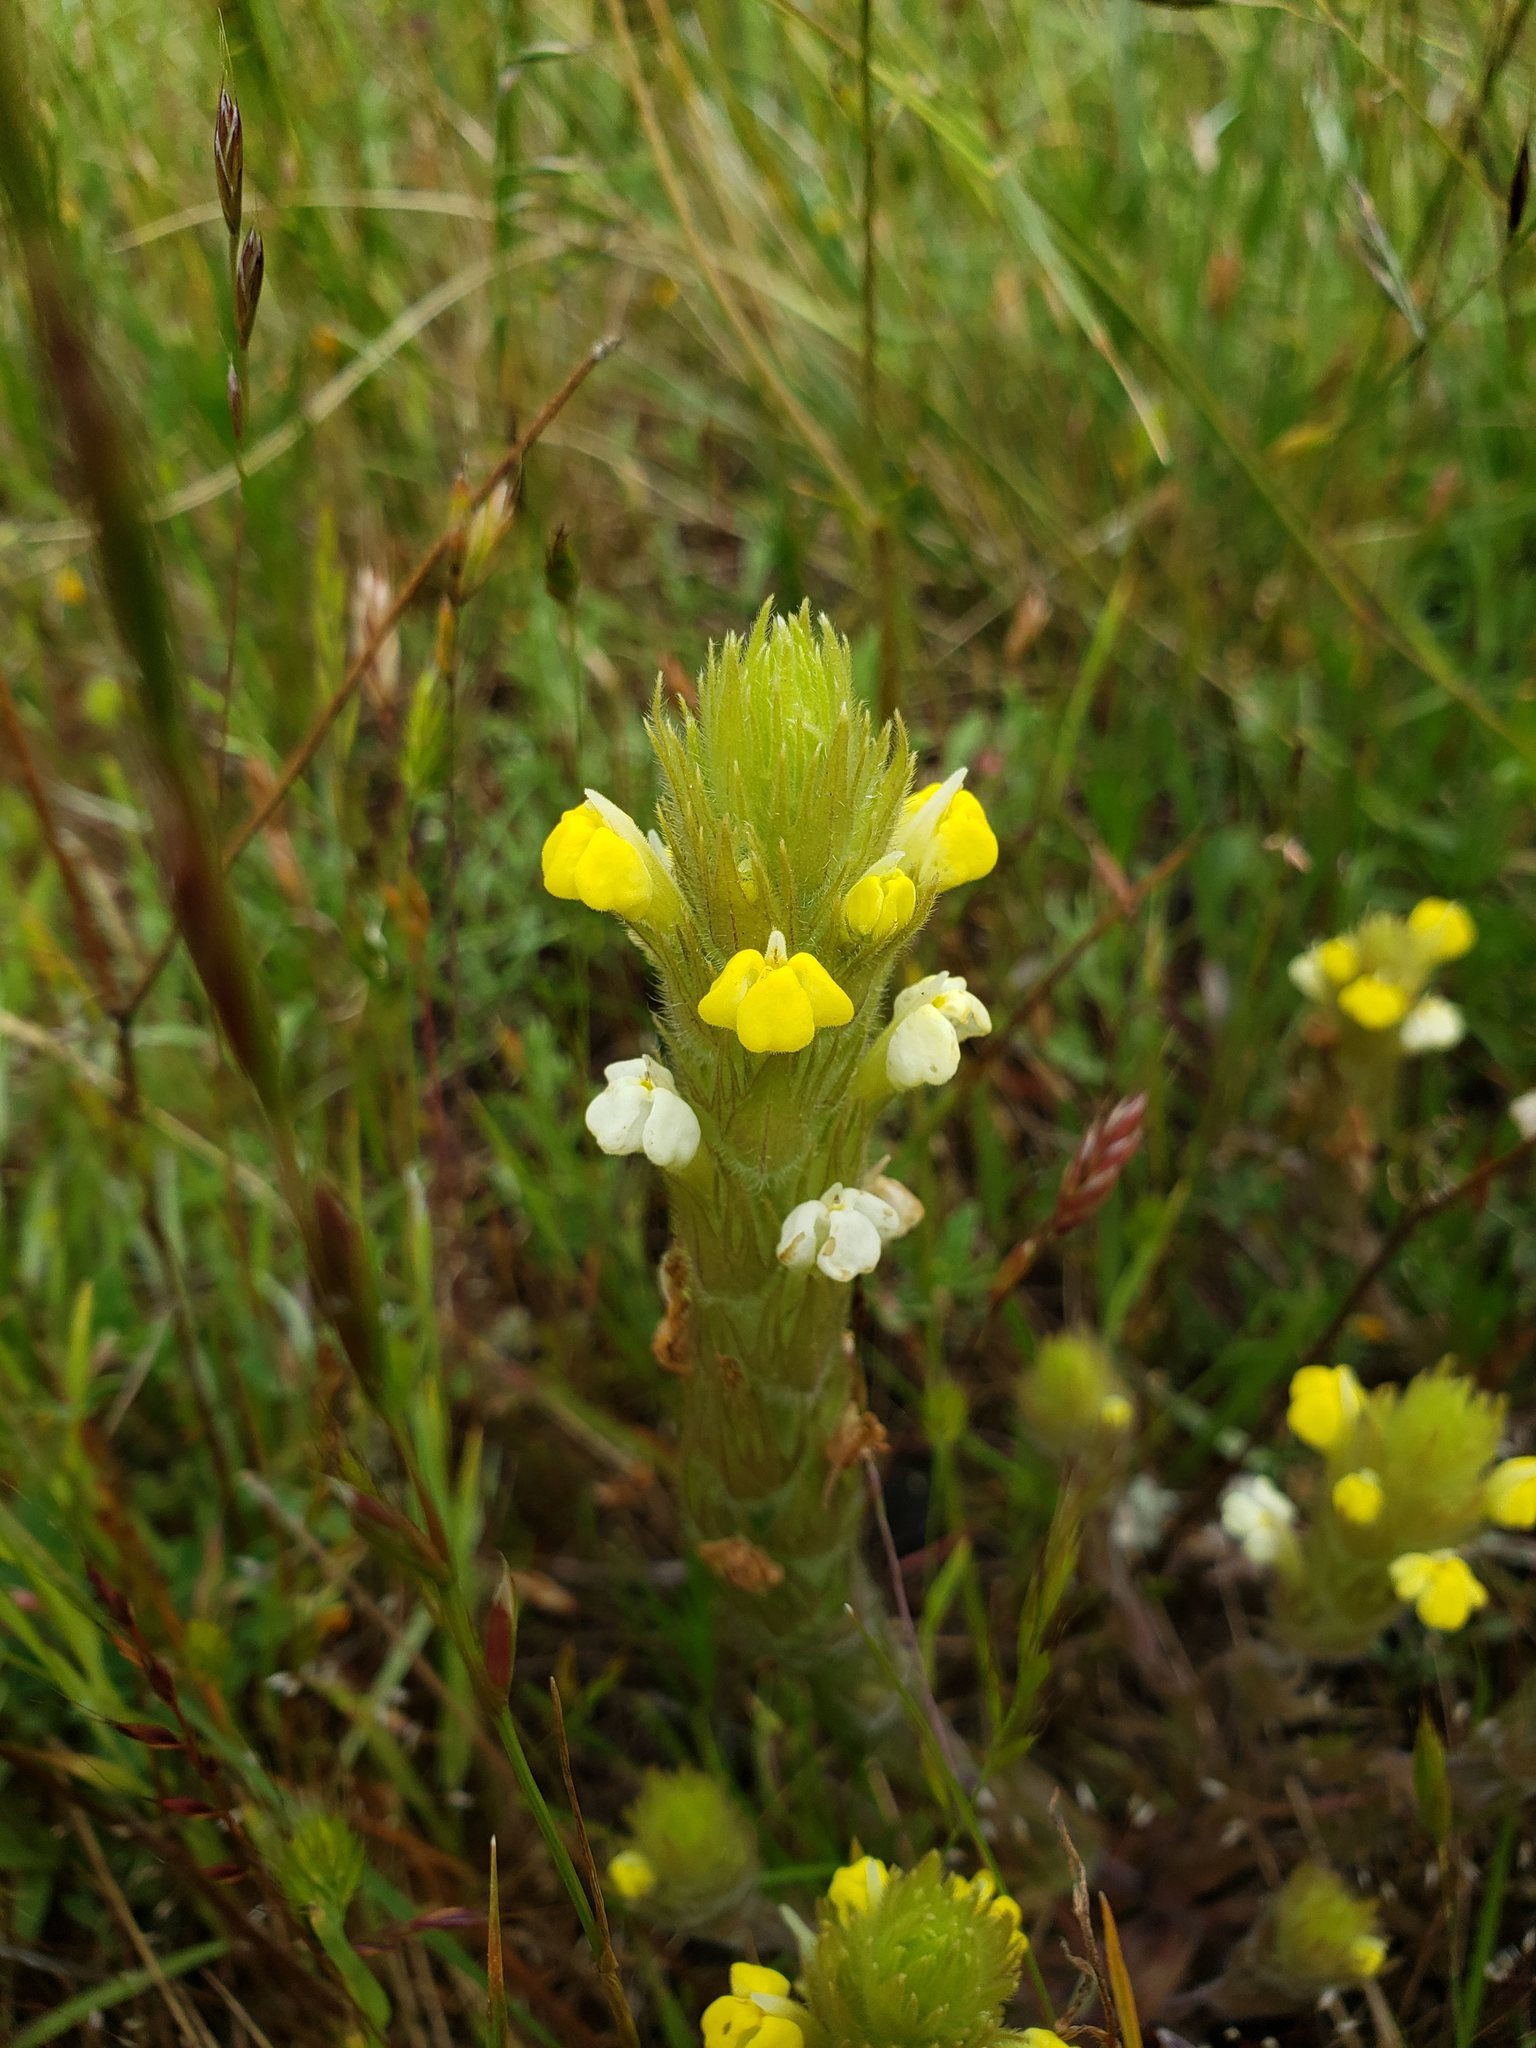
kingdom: Plantae
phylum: Tracheophyta
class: Magnoliopsida
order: Lamiales
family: Orobanchaceae
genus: Castilleja
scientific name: Castilleja rubicundula
